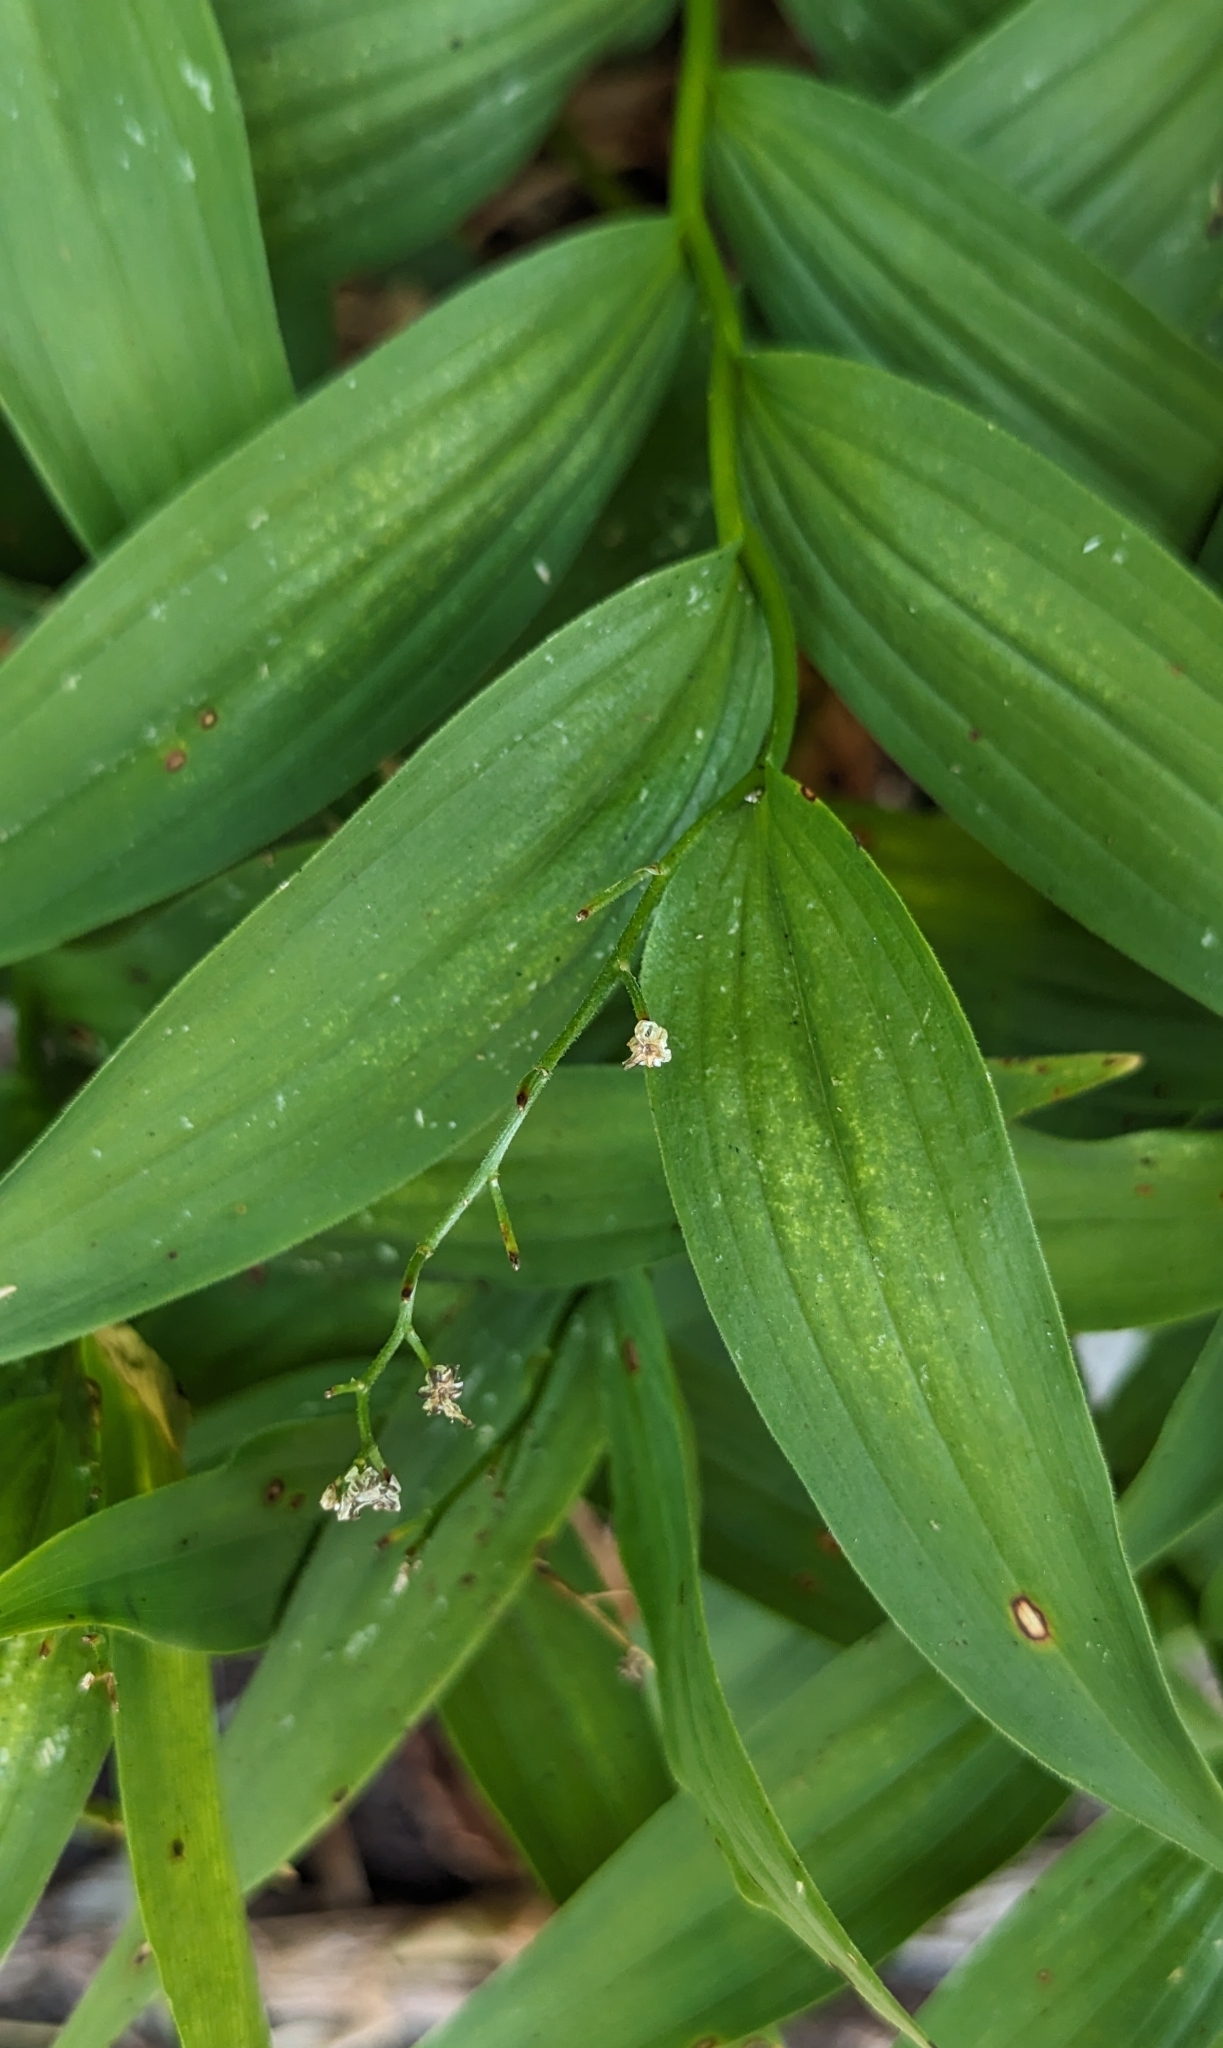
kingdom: Plantae
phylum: Tracheophyta
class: Liliopsida
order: Asparagales
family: Asparagaceae
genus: Maianthemum
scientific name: Maianthemum stellatum
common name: Little false solomon's seal
